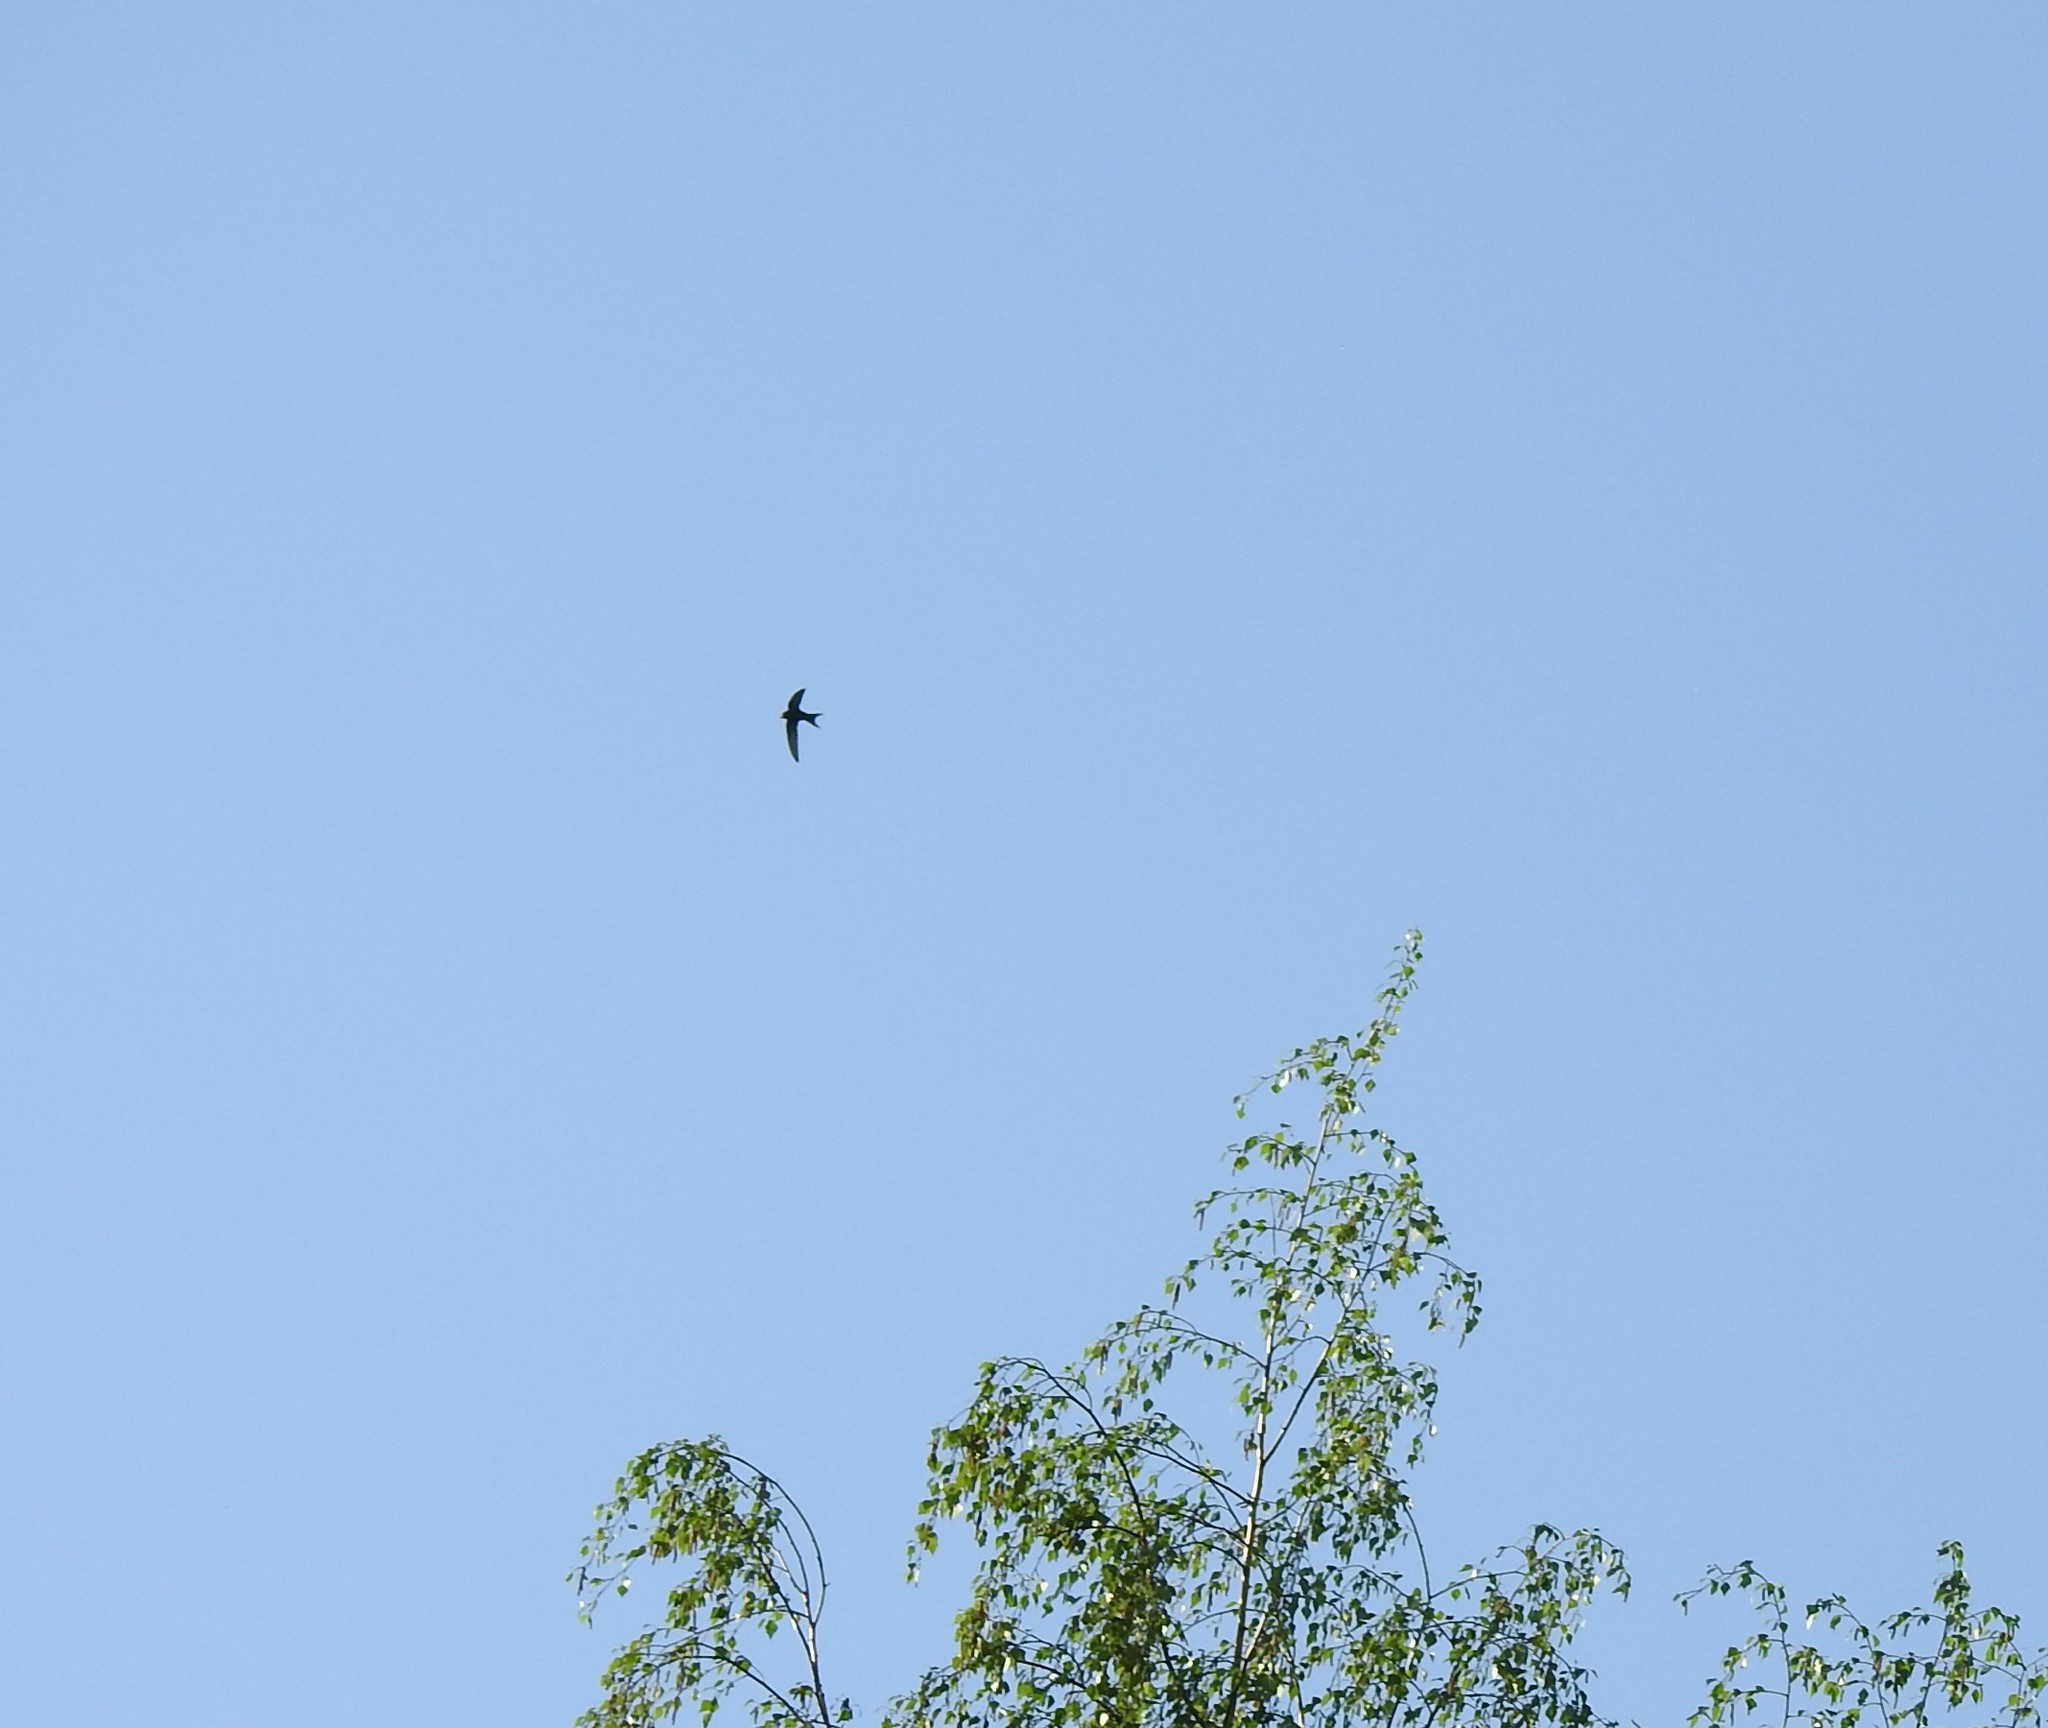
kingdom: Animalia
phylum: Chordata
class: Aves
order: Apodiformes
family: Apodidae
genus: Apus
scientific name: Apus apus
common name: Common swift
